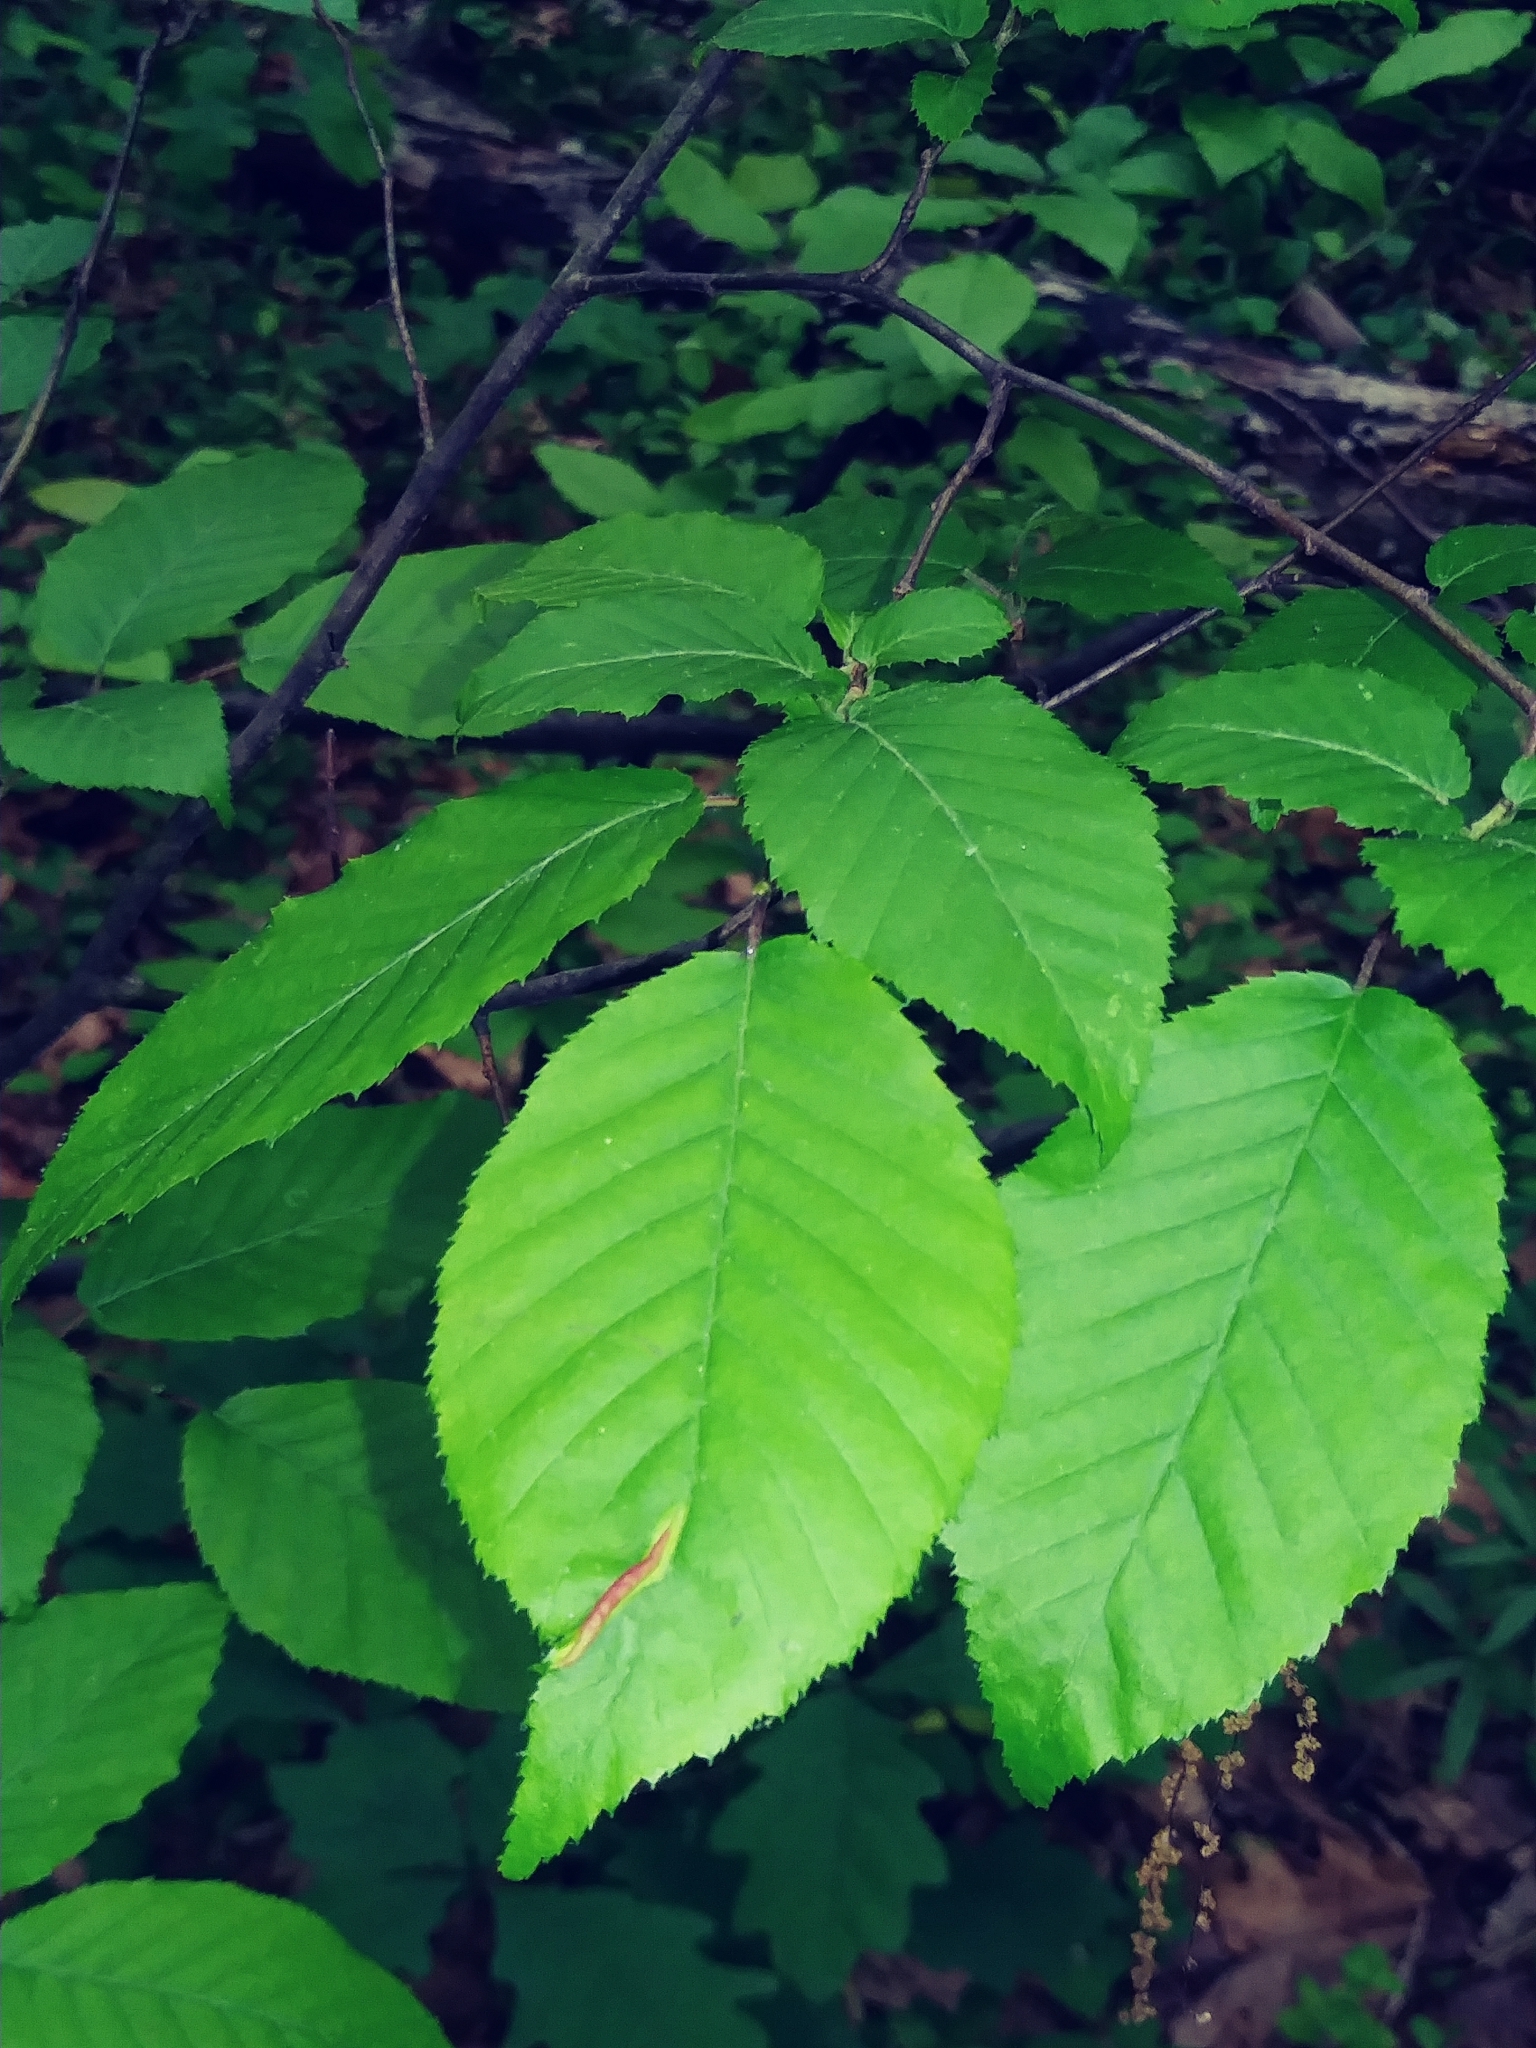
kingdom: Animalia
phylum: Arthropoda
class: Insecta
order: Diptera
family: Cecidomyiidae
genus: Dasineura
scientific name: Dasineura pudibunda
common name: Hornbeam leaf gall midge
